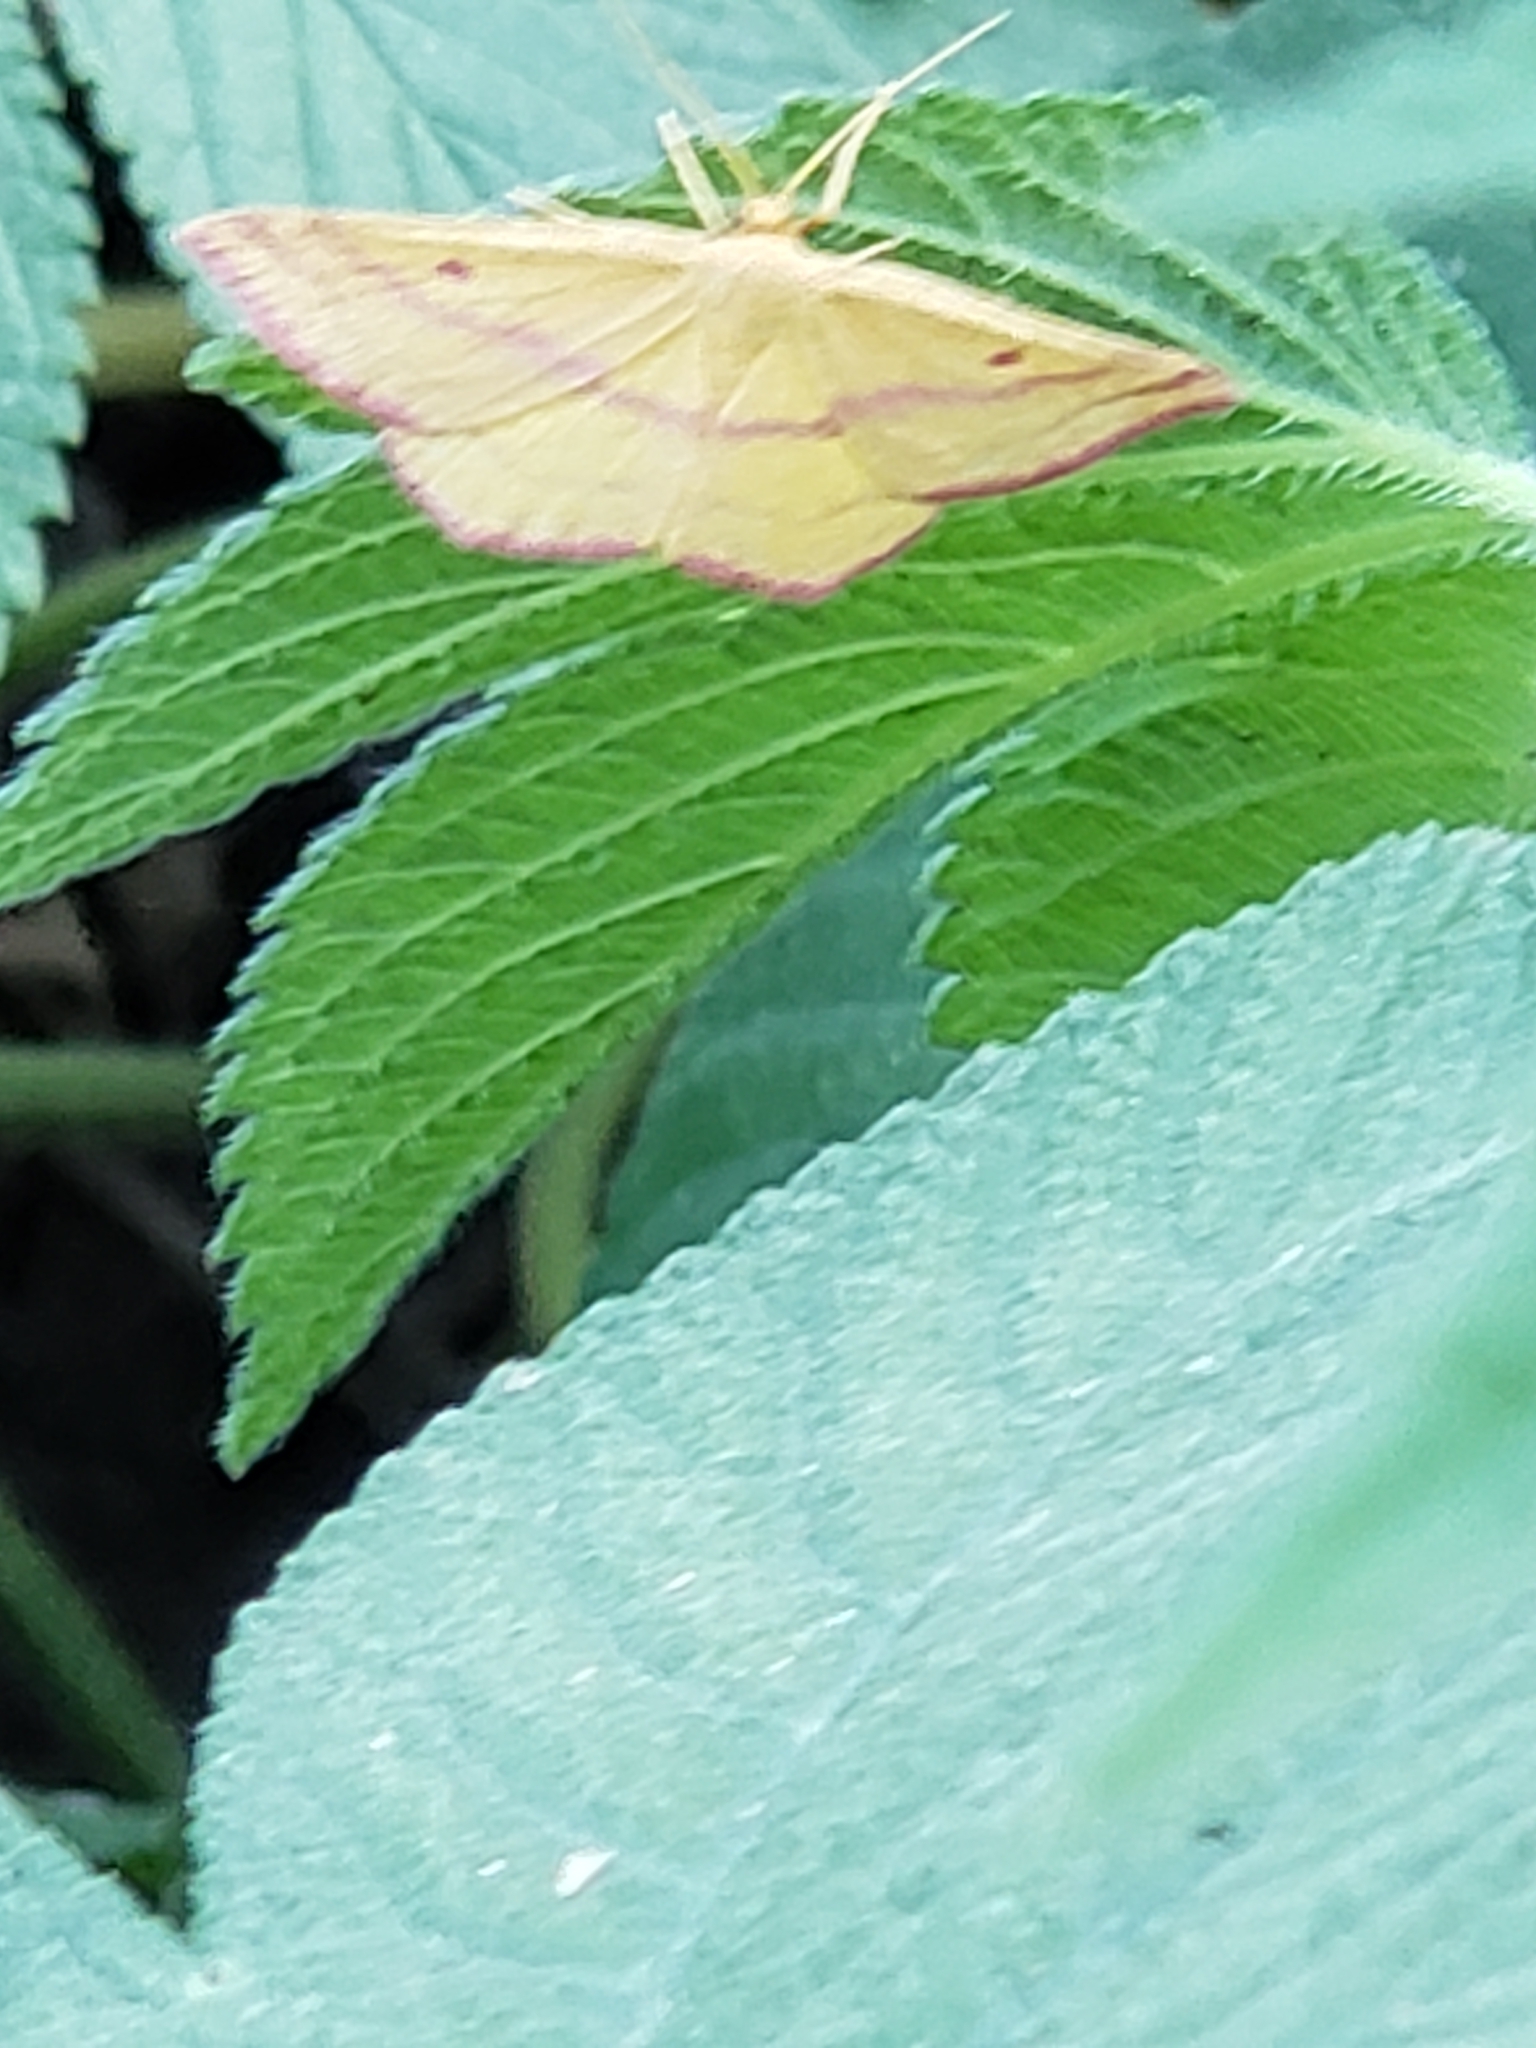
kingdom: Animalia
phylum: Arthropoda
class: Insecta
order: Lepidoptera
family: Geometridae
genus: Haematopis
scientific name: Haematopis grataria
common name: Chickweed geometer
